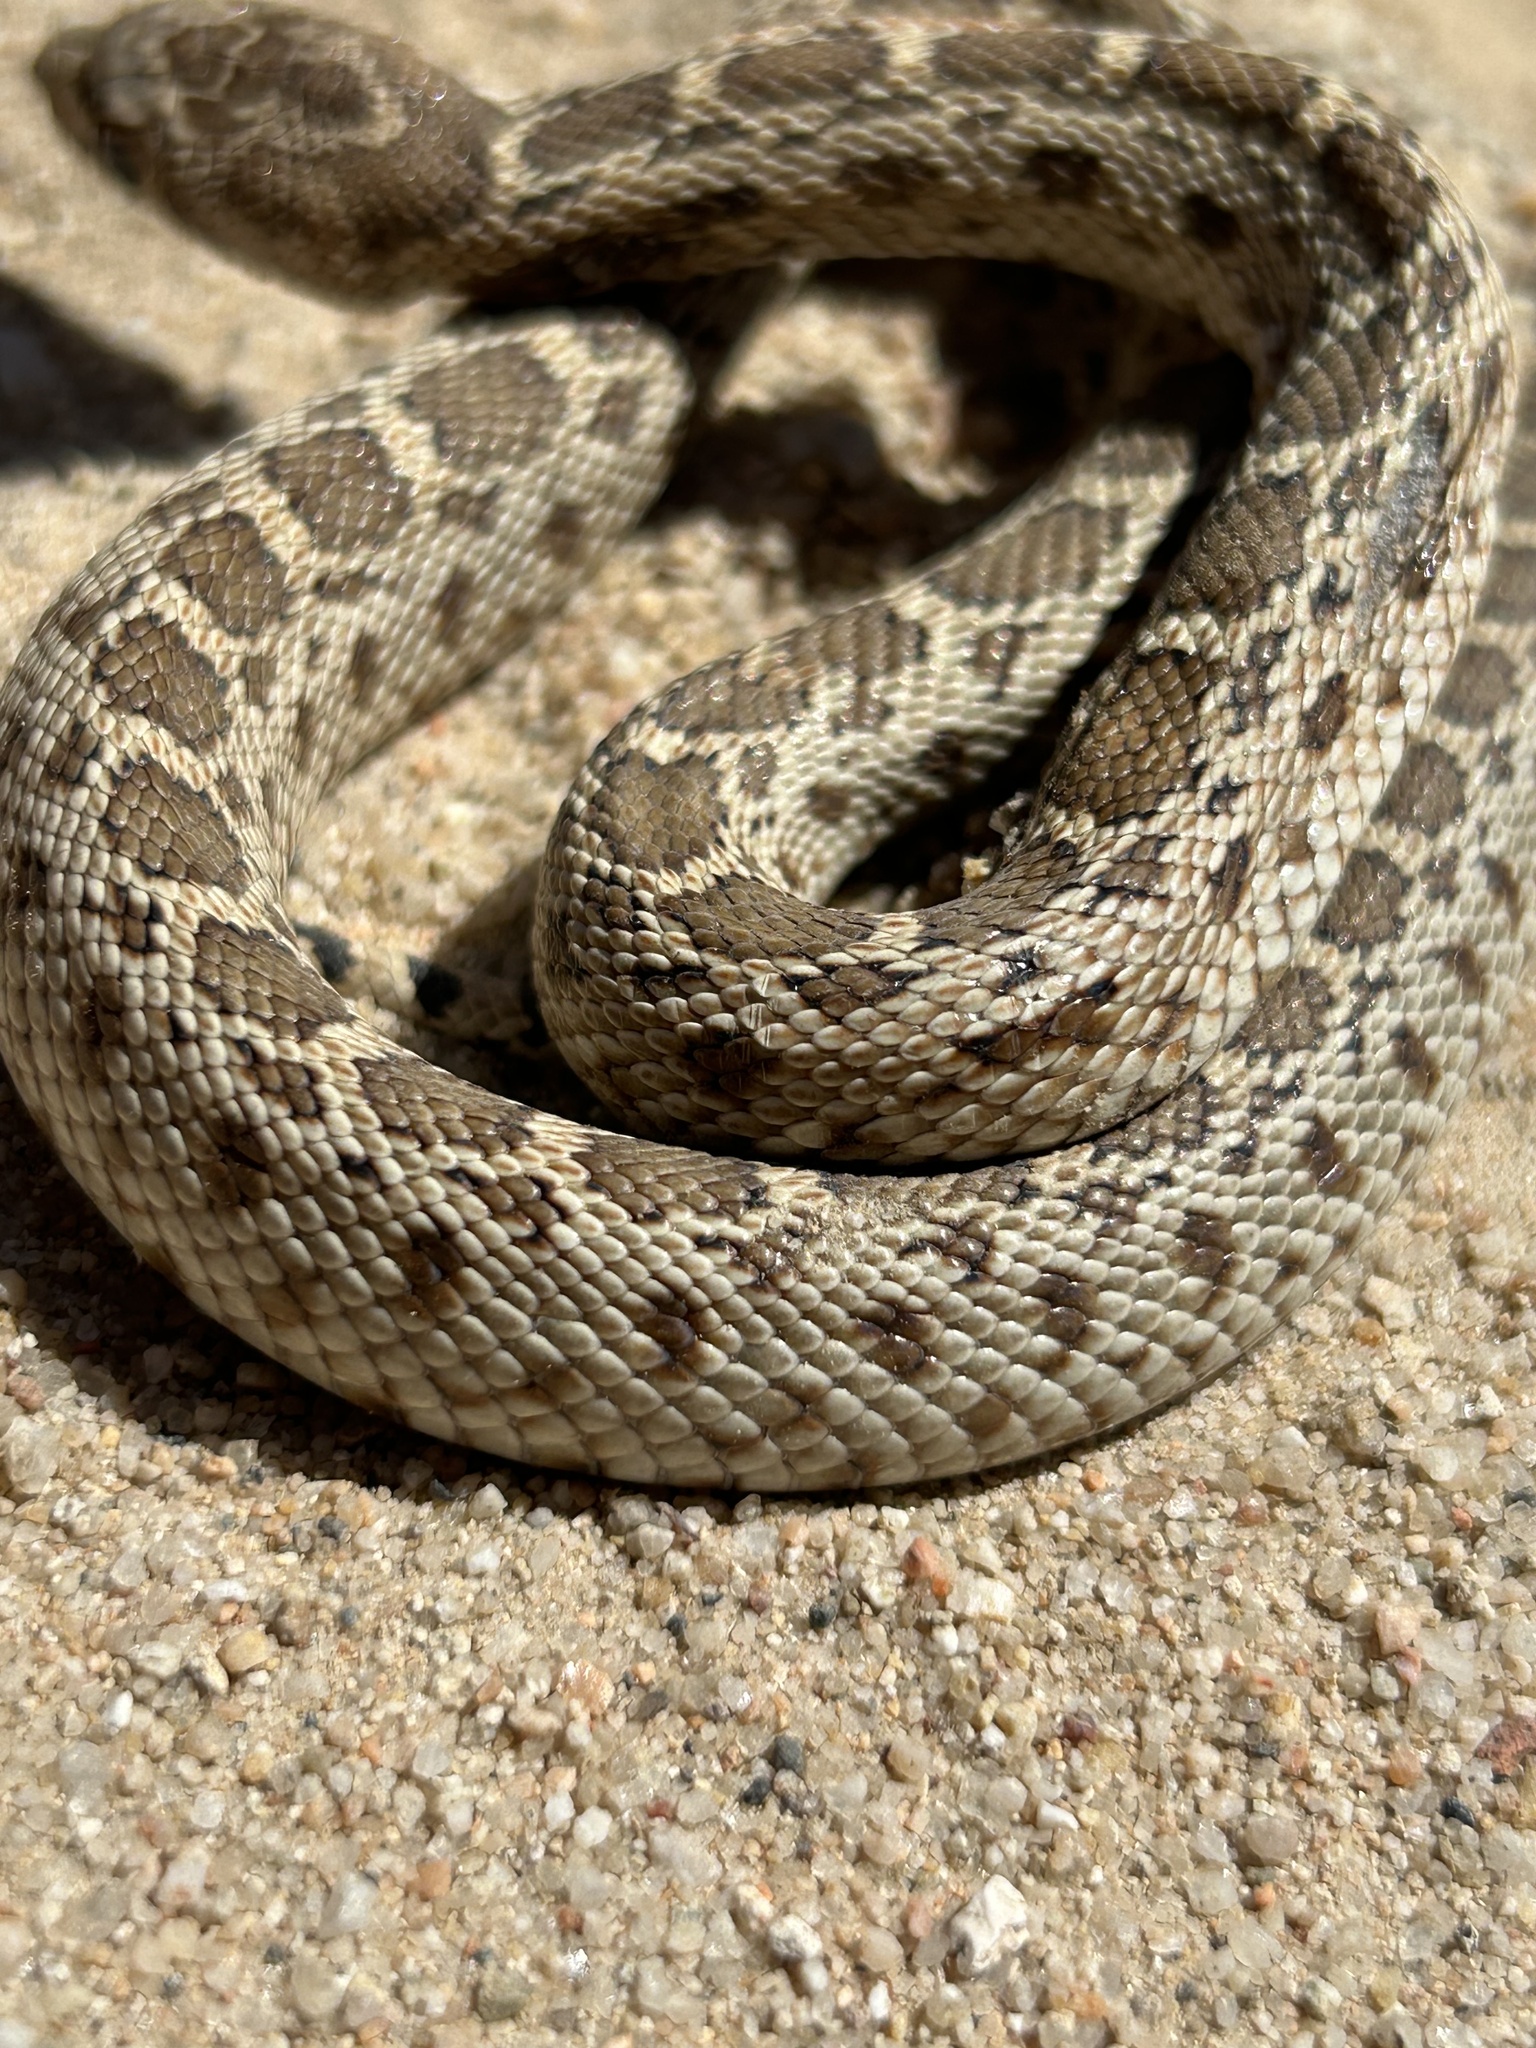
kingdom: Animalia
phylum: Chordata
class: Squamata
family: Colubridae
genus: Pituophis
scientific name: Pituophis catenifer
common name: Gopher snake
